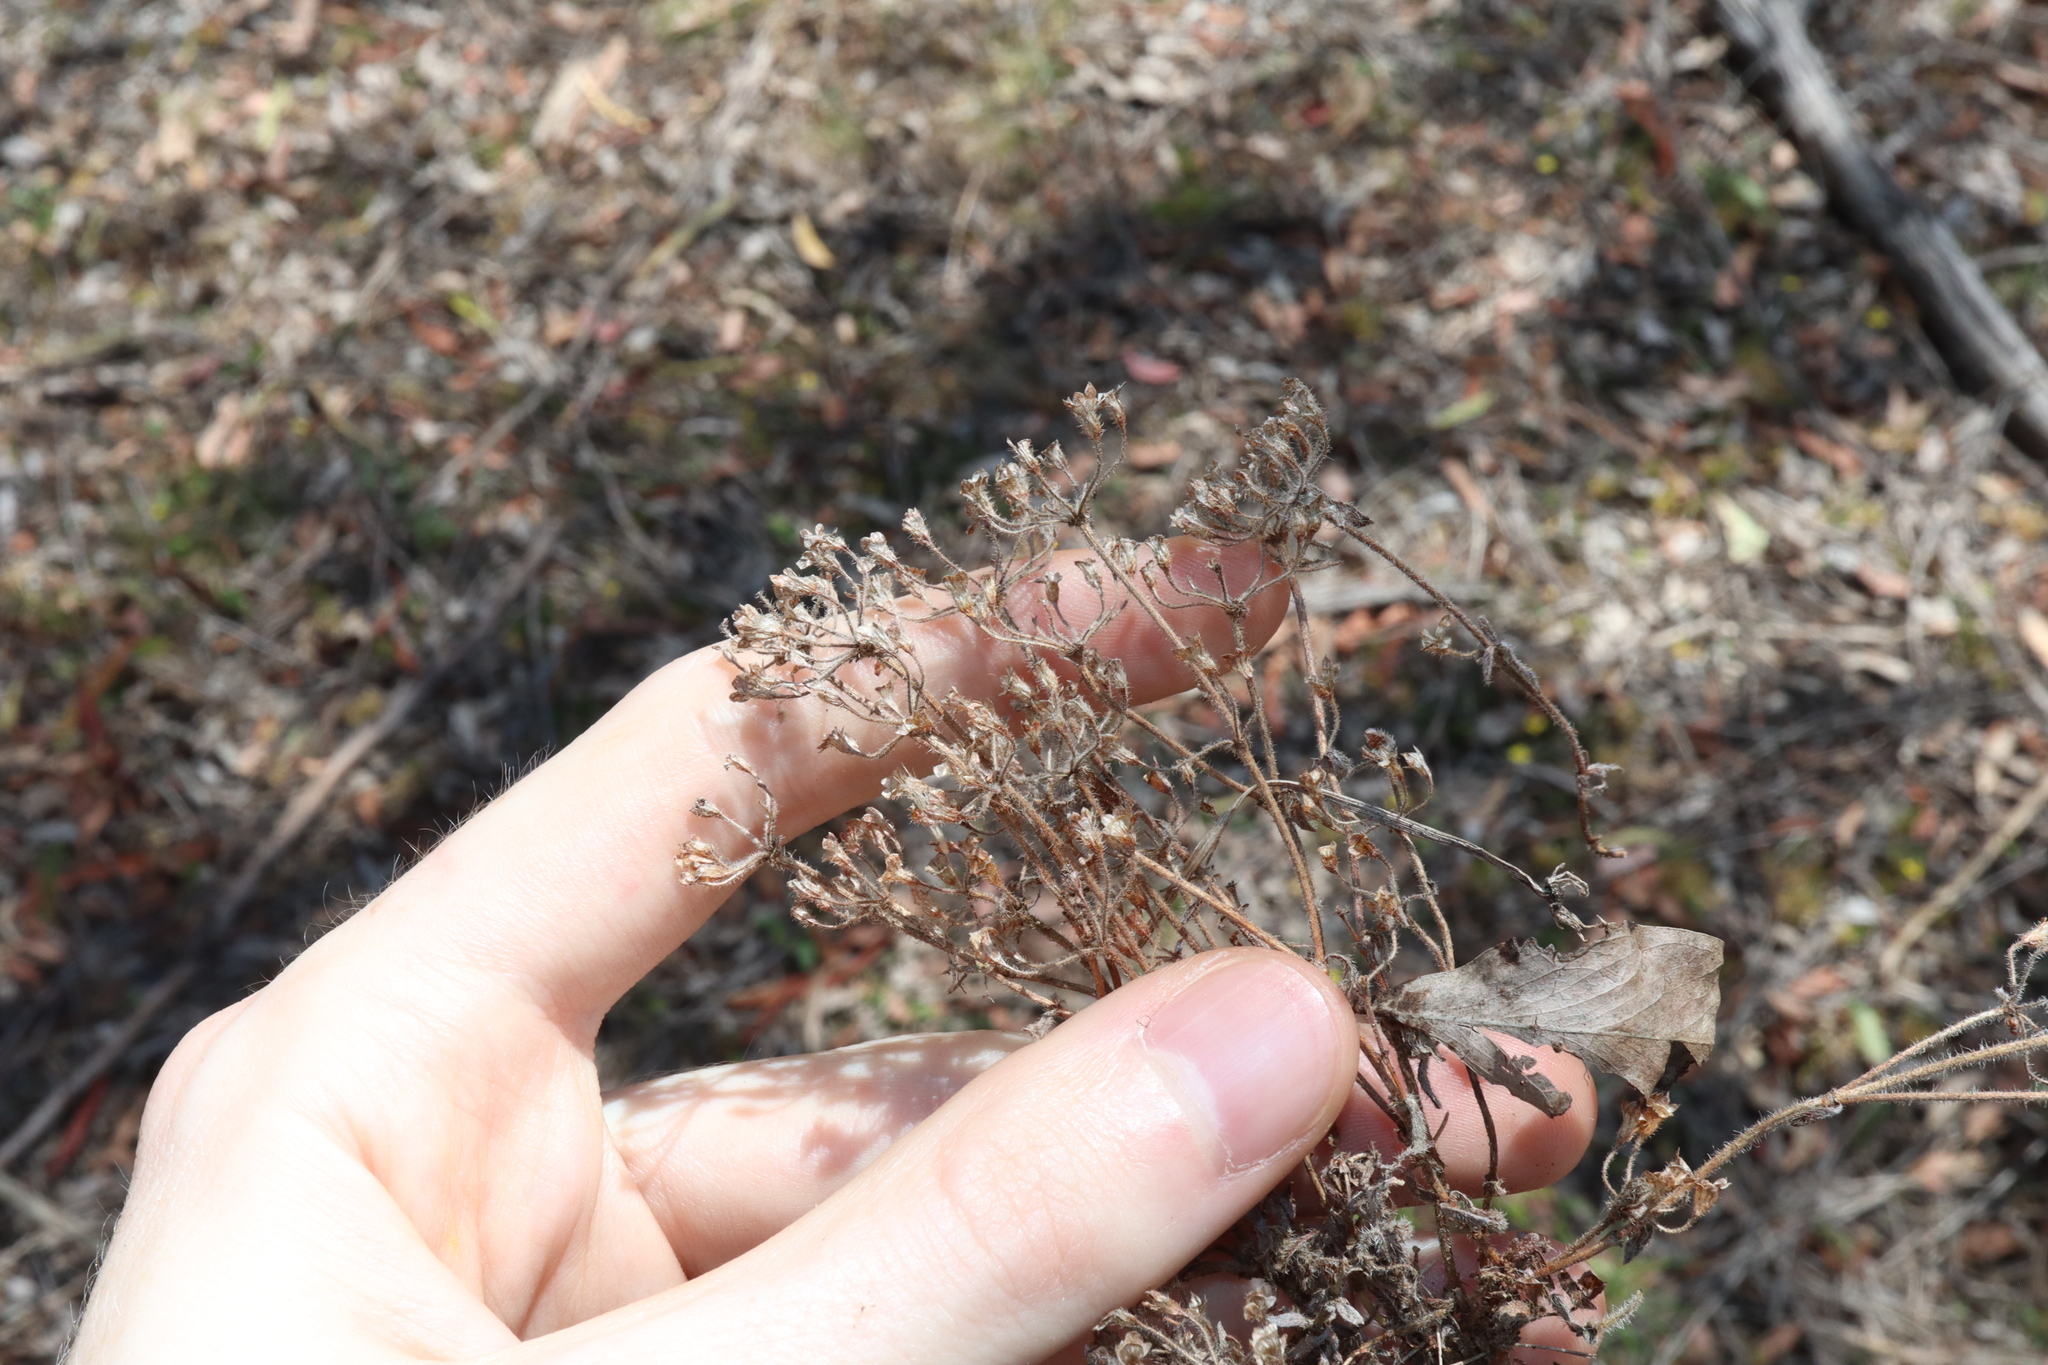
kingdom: Plantae
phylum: Tracheophyta
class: Magnoliopsida
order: Gentianales
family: Rubiaceae
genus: Pomax
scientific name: Pomax umbellata
